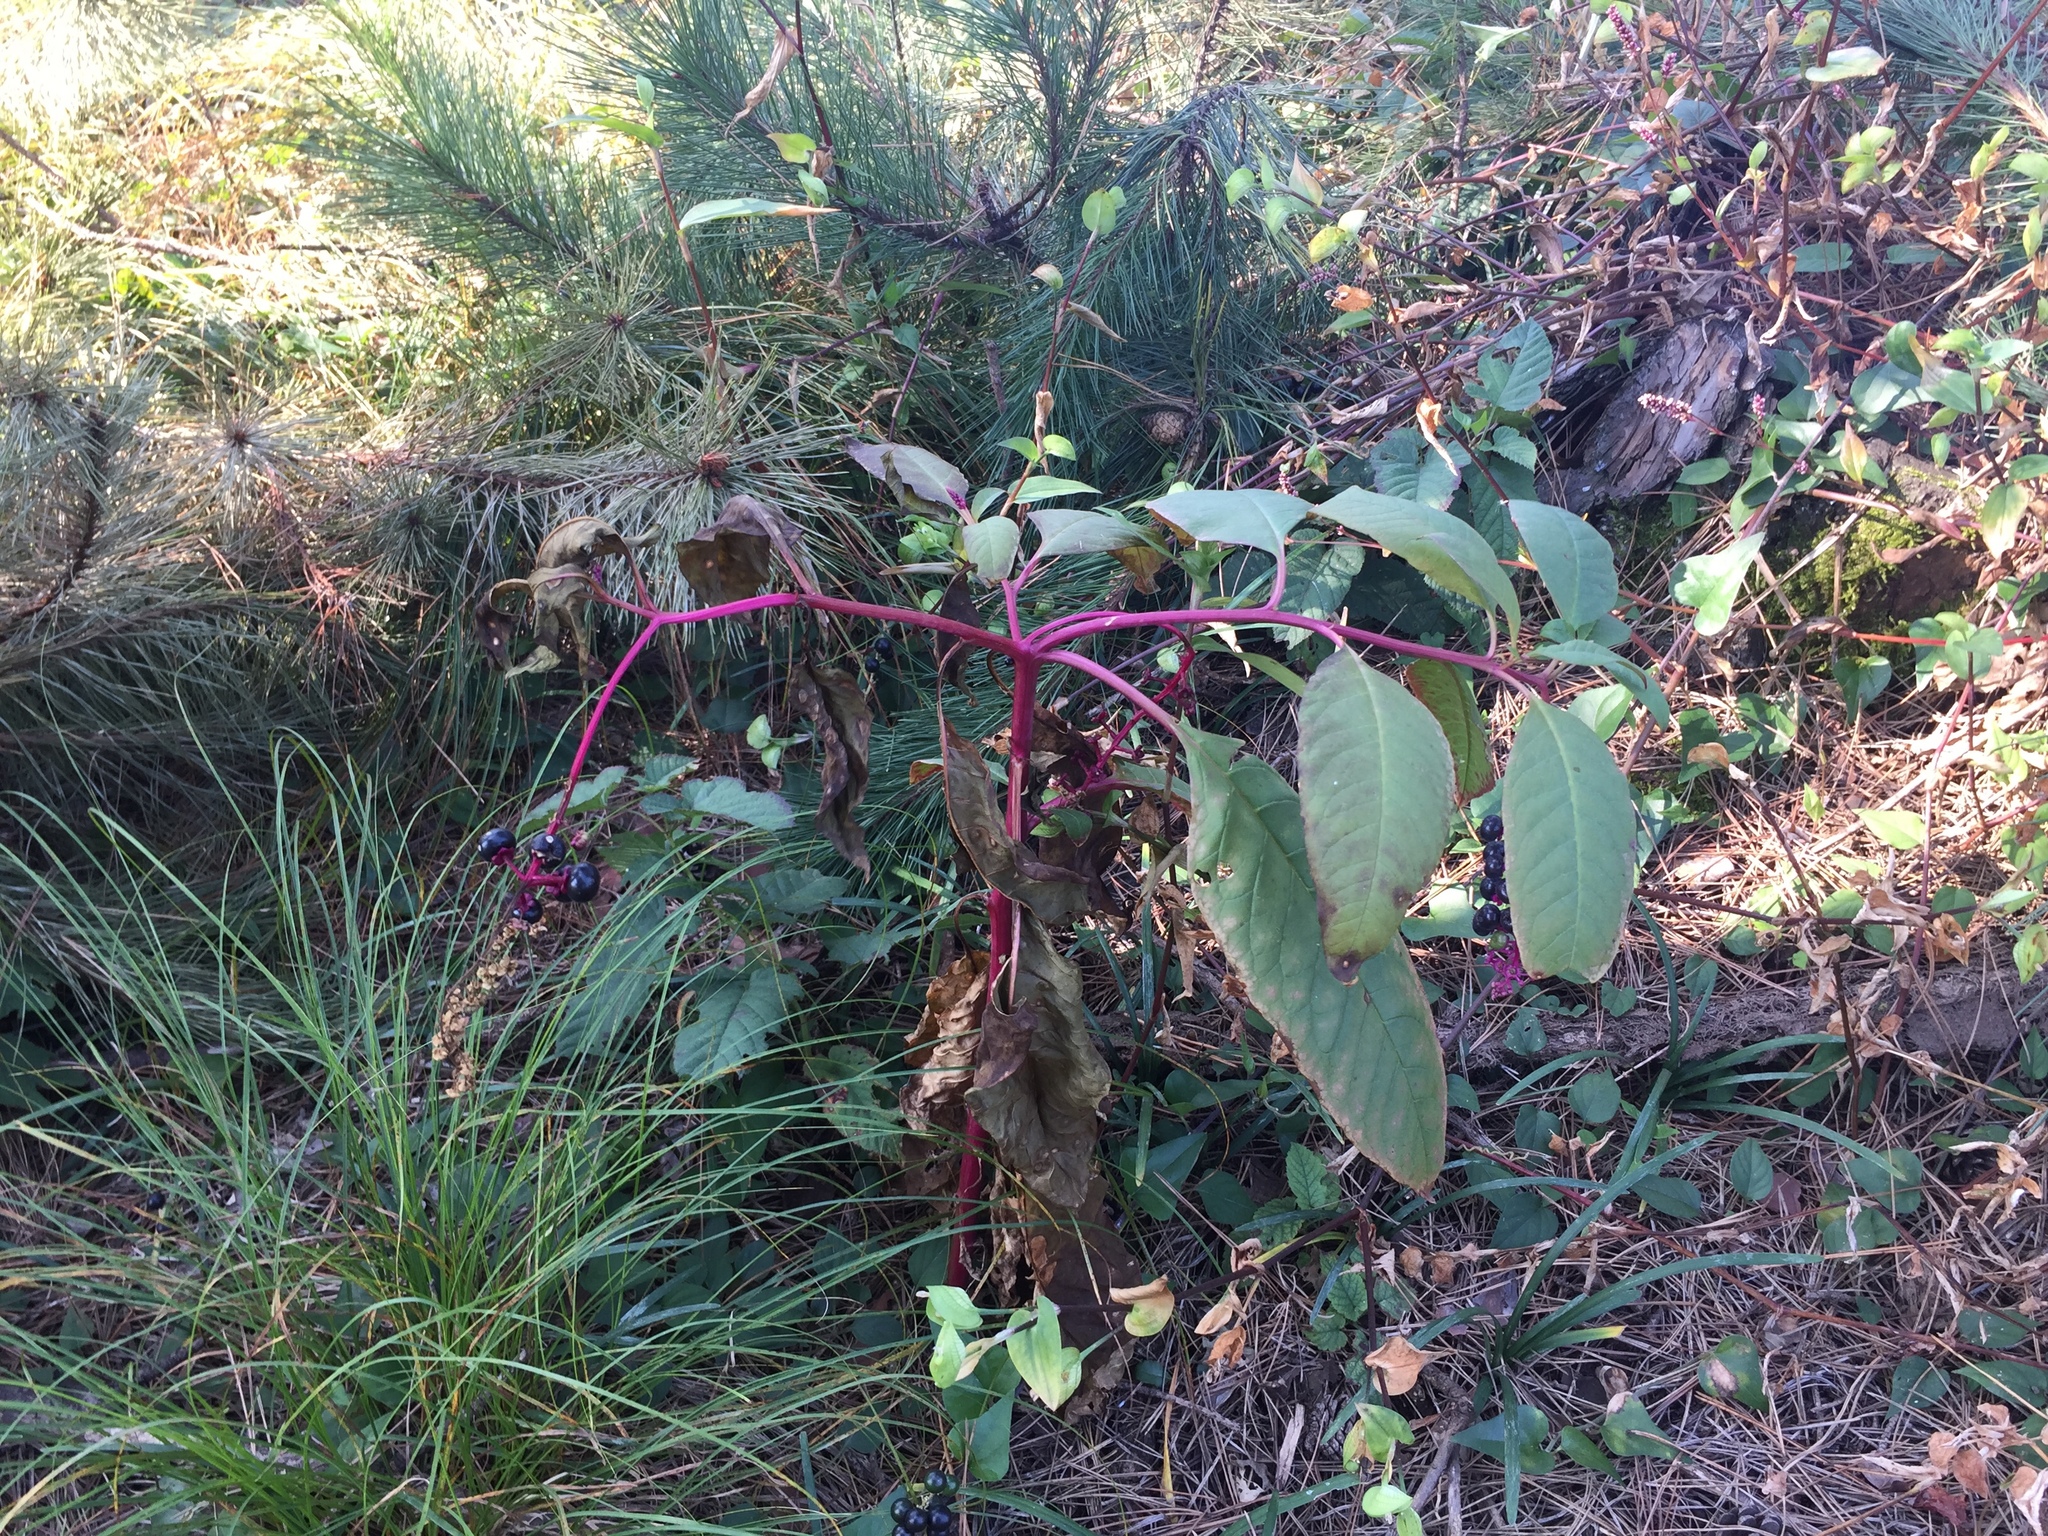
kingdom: Plantae
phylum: Tracheophyta
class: Magnoliopsida
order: Caryophyllales
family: Phytolaccaceae
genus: Phytolacca
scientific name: Phytolacca americana
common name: American pokeweed
